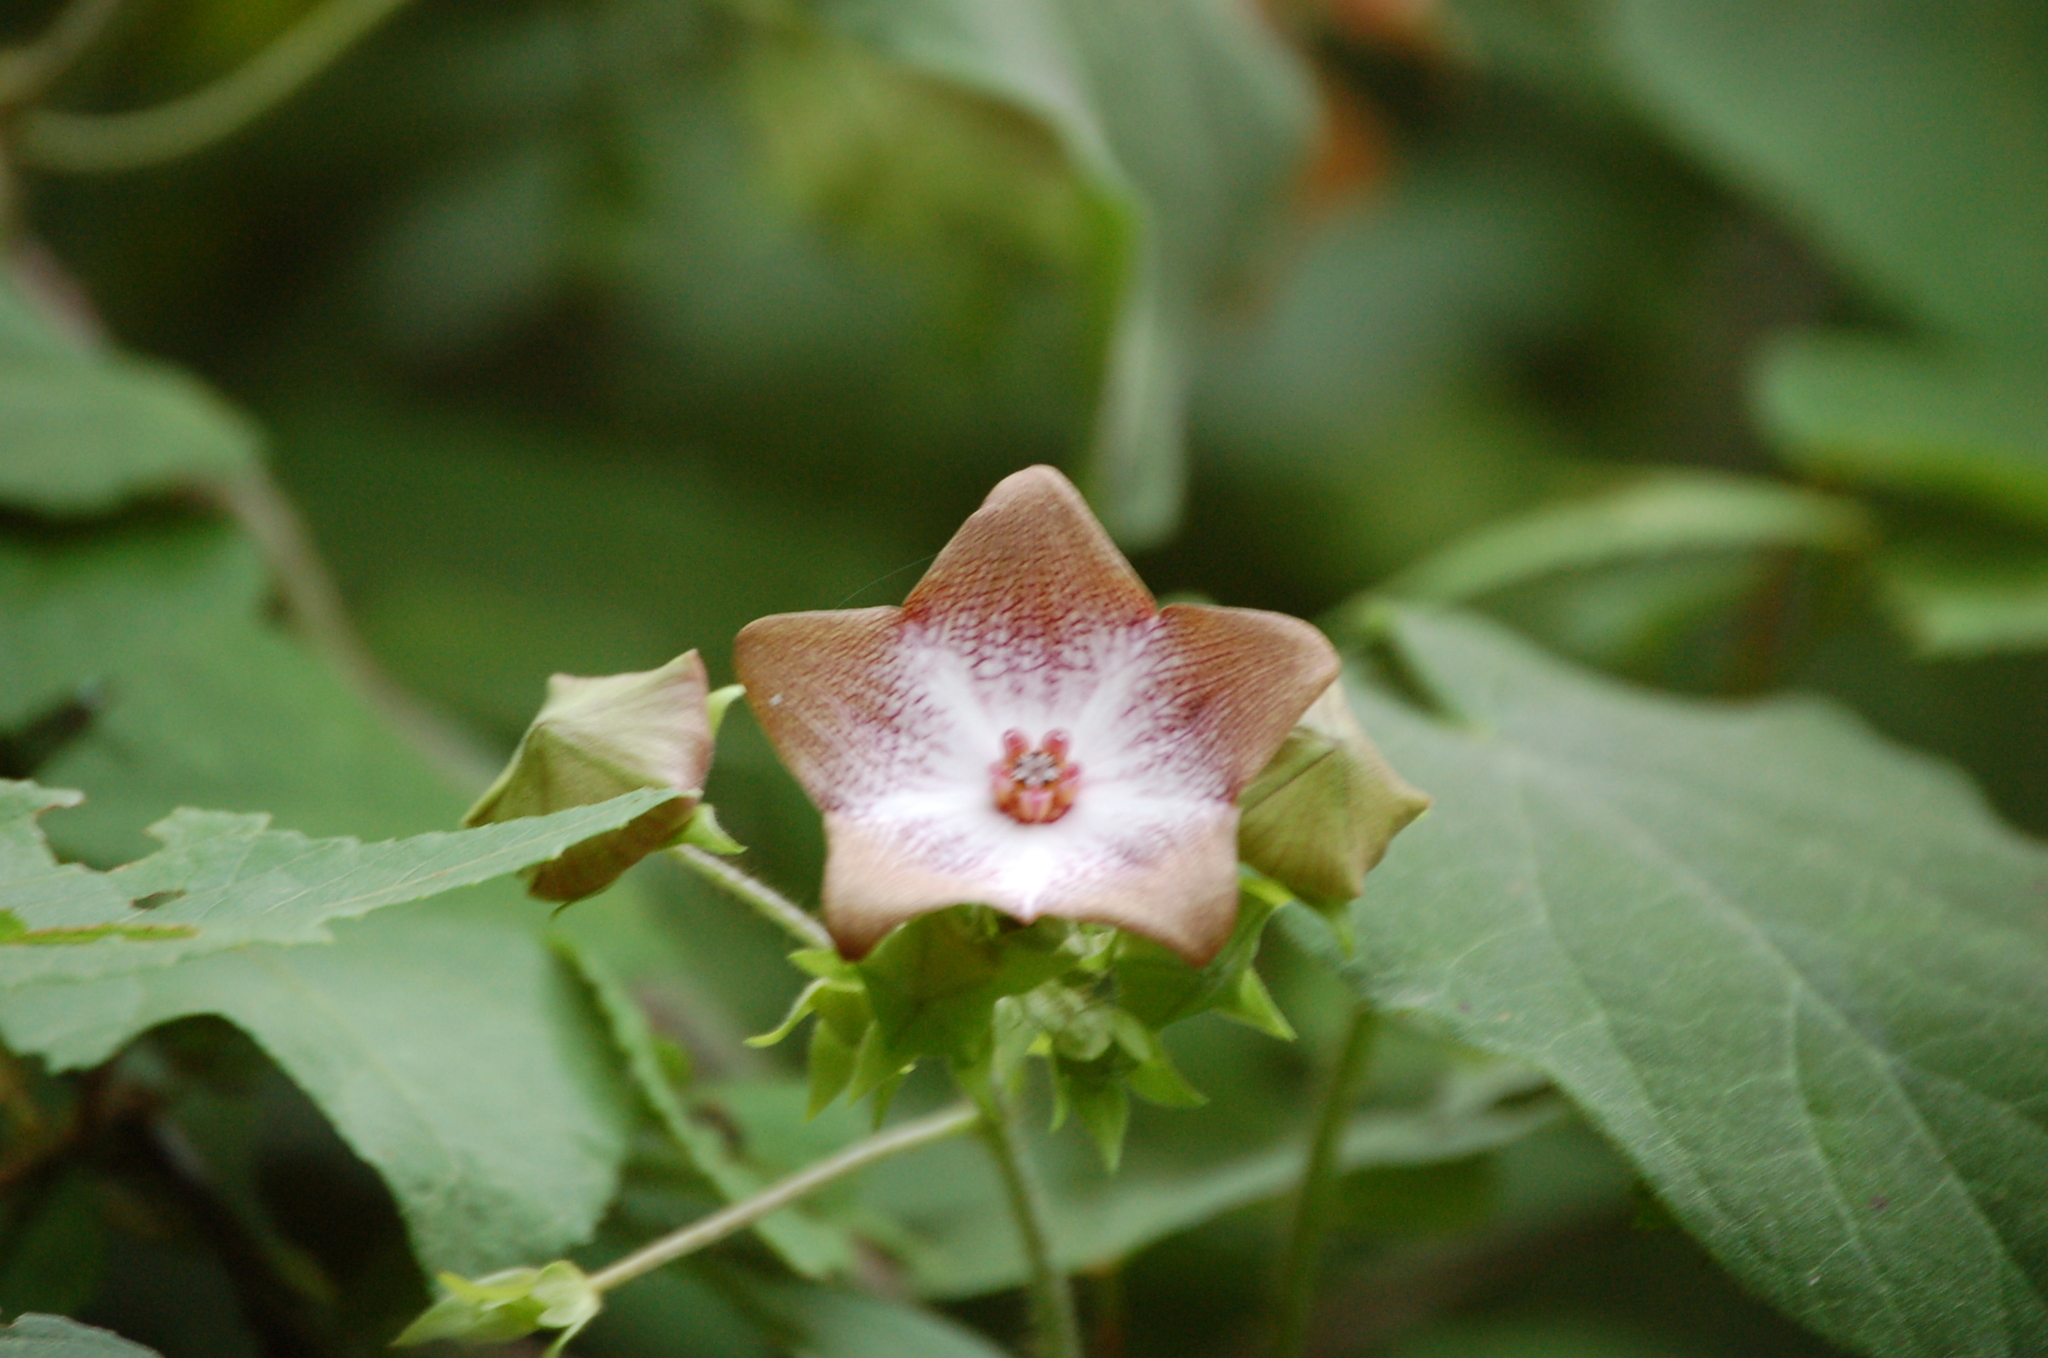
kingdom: Plantae
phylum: Tracheophyta
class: Magnoliopsida
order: Gentianales
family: Apocynaceae
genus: Polystemma
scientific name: Polystemma guatemalense
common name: Arborescente rattan
